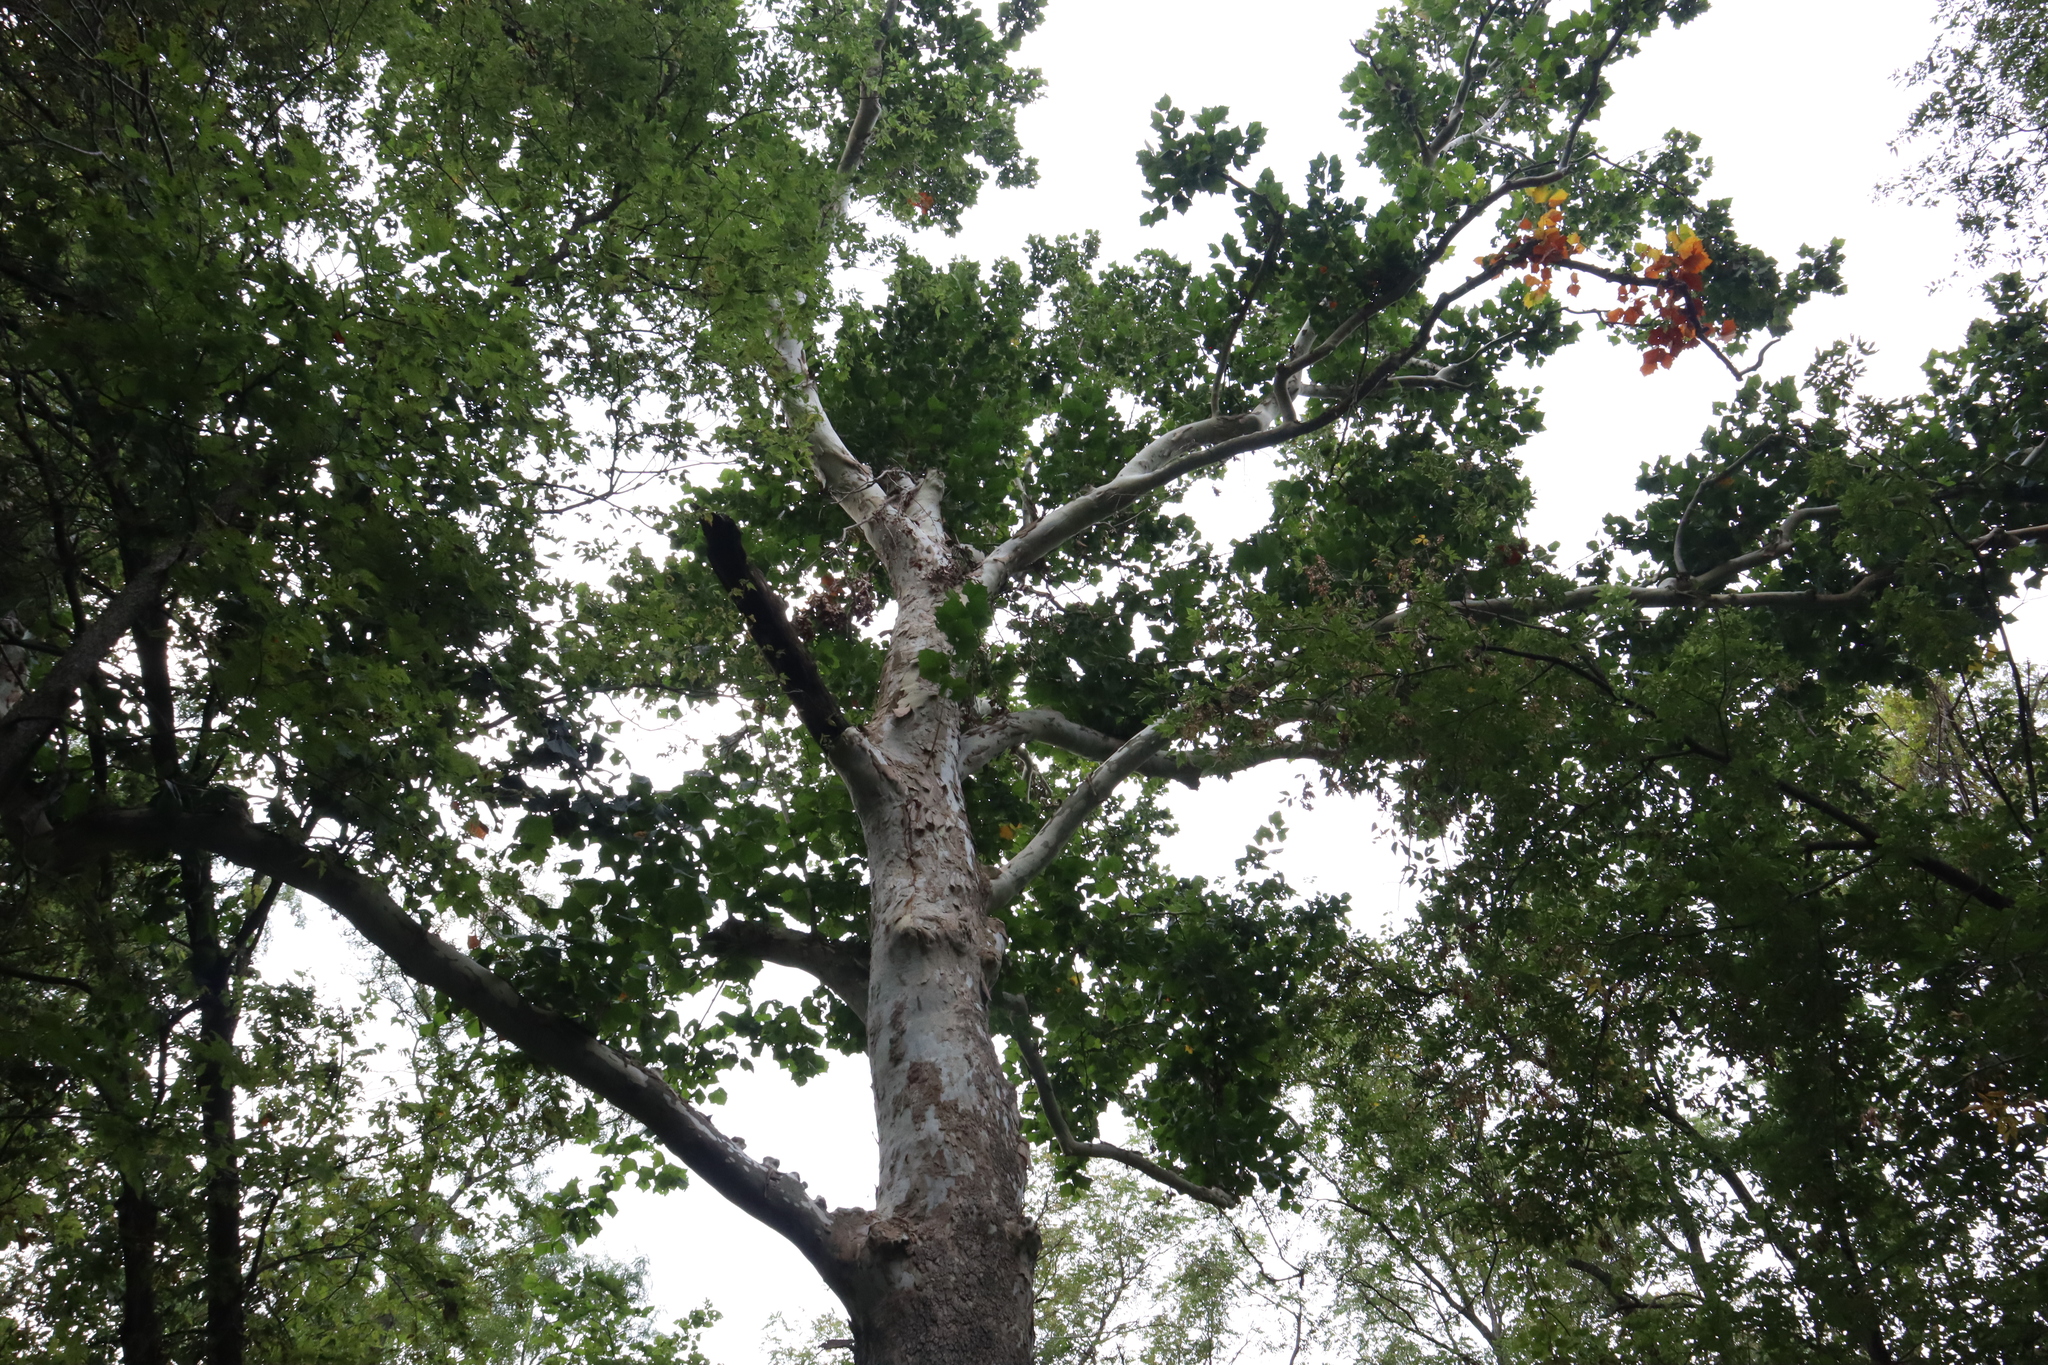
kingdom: Plantae
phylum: Tracheophyta
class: Magnoliopsida
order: Proteales
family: Platanaceae
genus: Platanus
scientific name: Platanus occidentalis
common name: American sycamore
